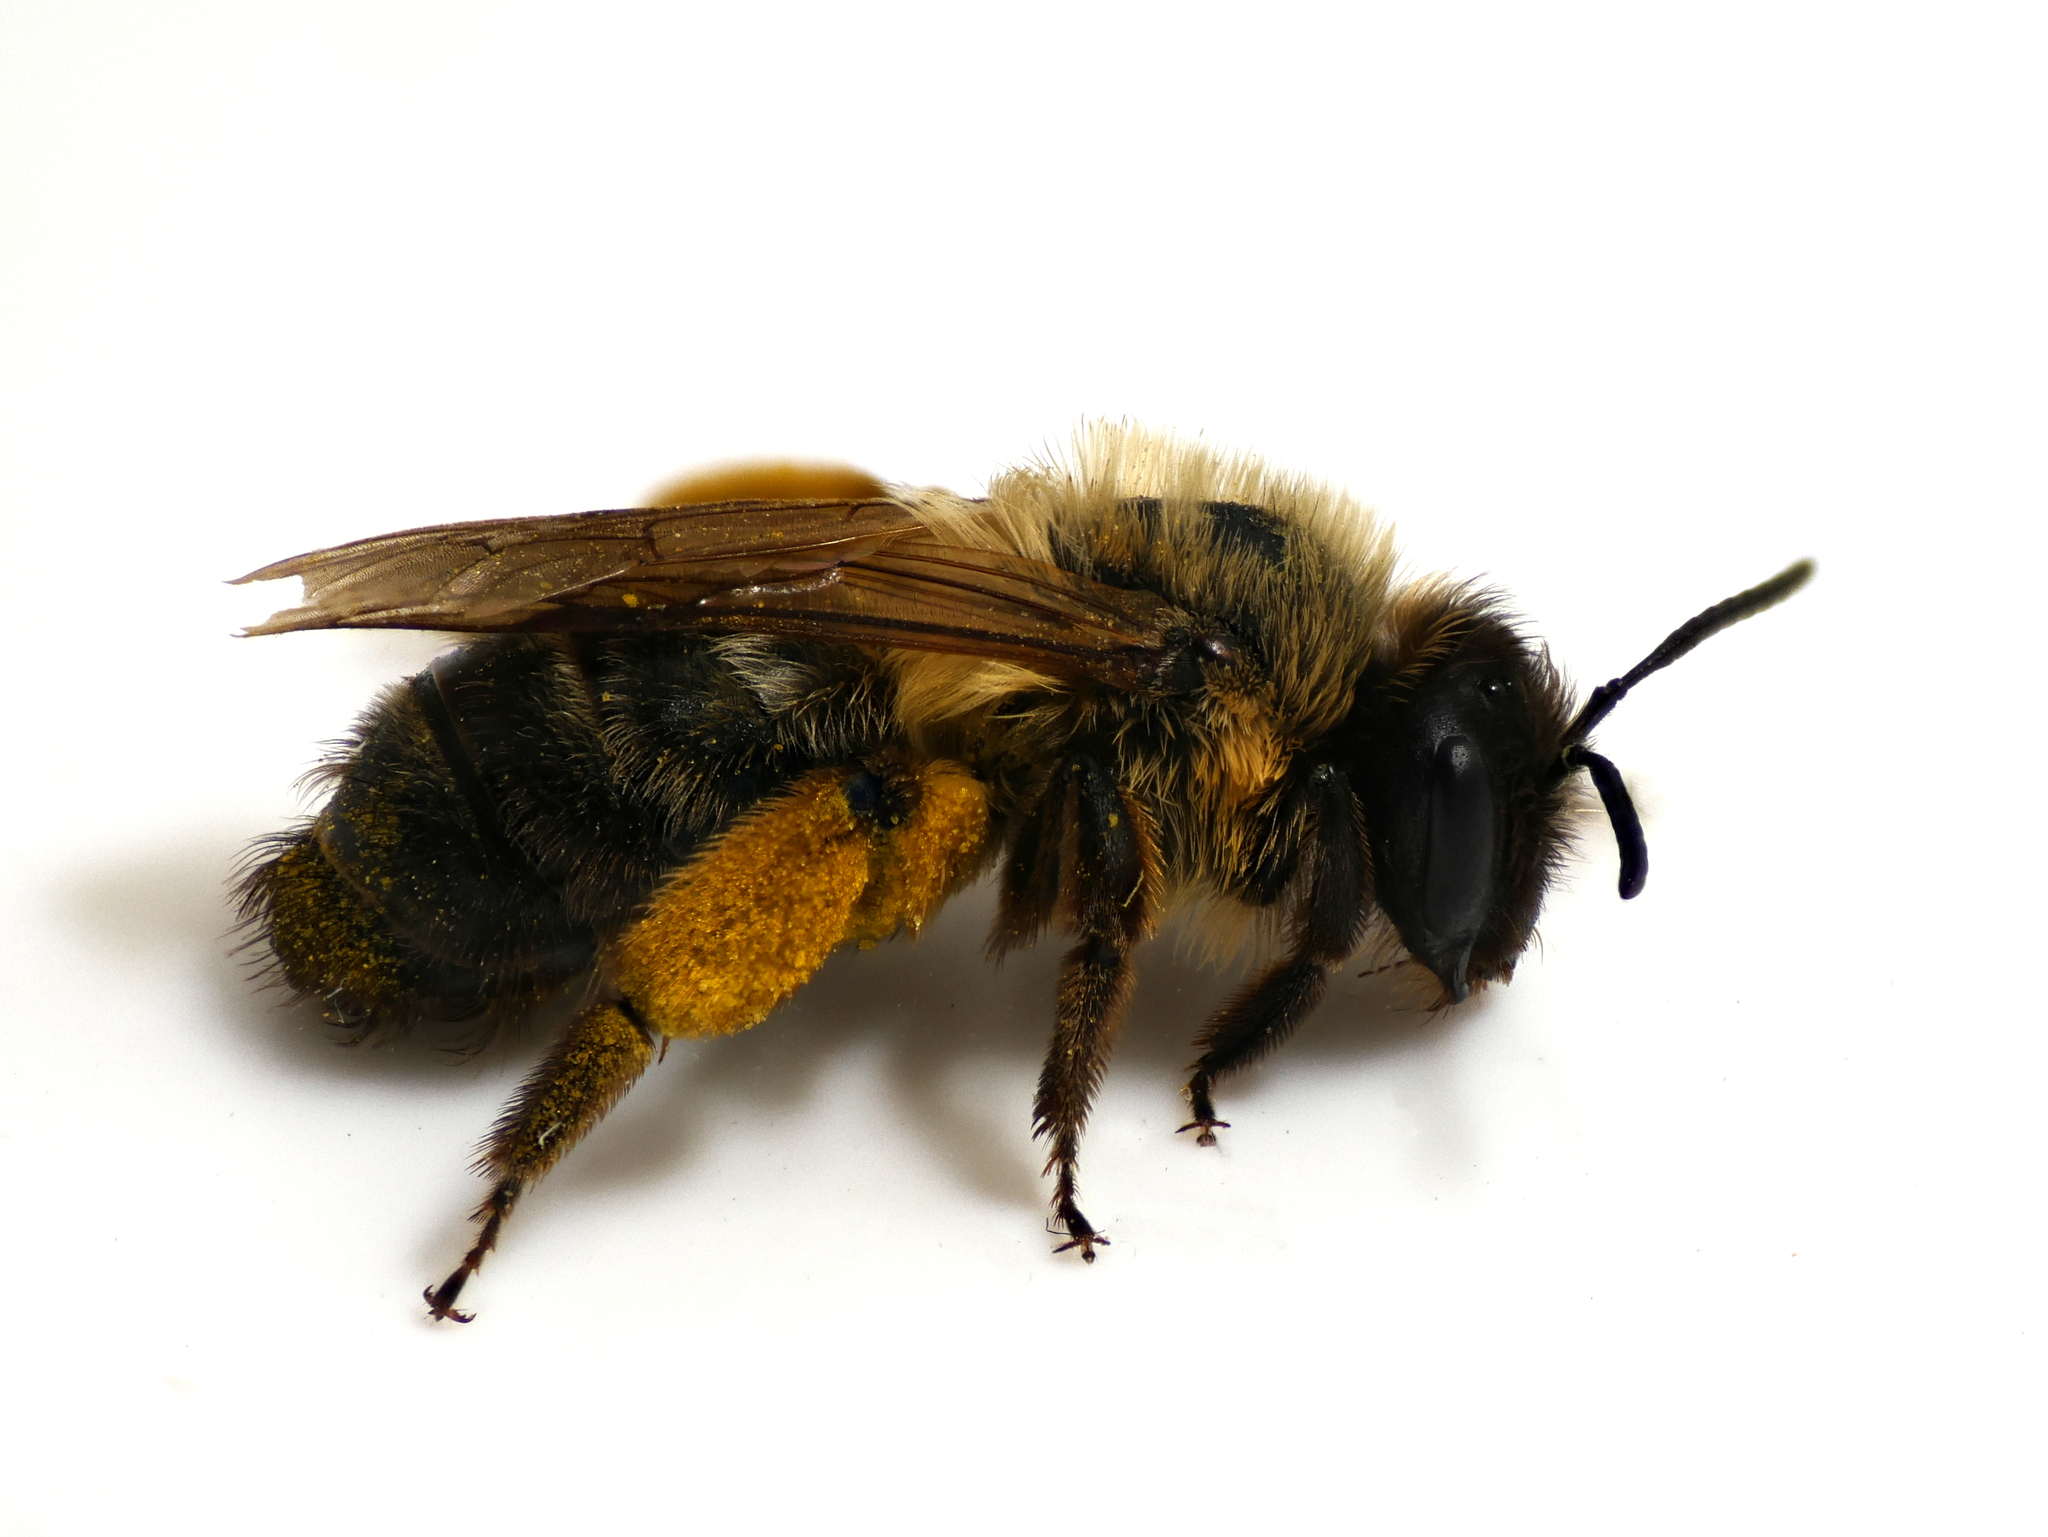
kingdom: Animalia
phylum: Arthropoda
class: Insecta
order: Hymenoptera
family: Andrenidae
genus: Andrena
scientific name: Andrena nigroaenea
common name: Buffish mining bee
